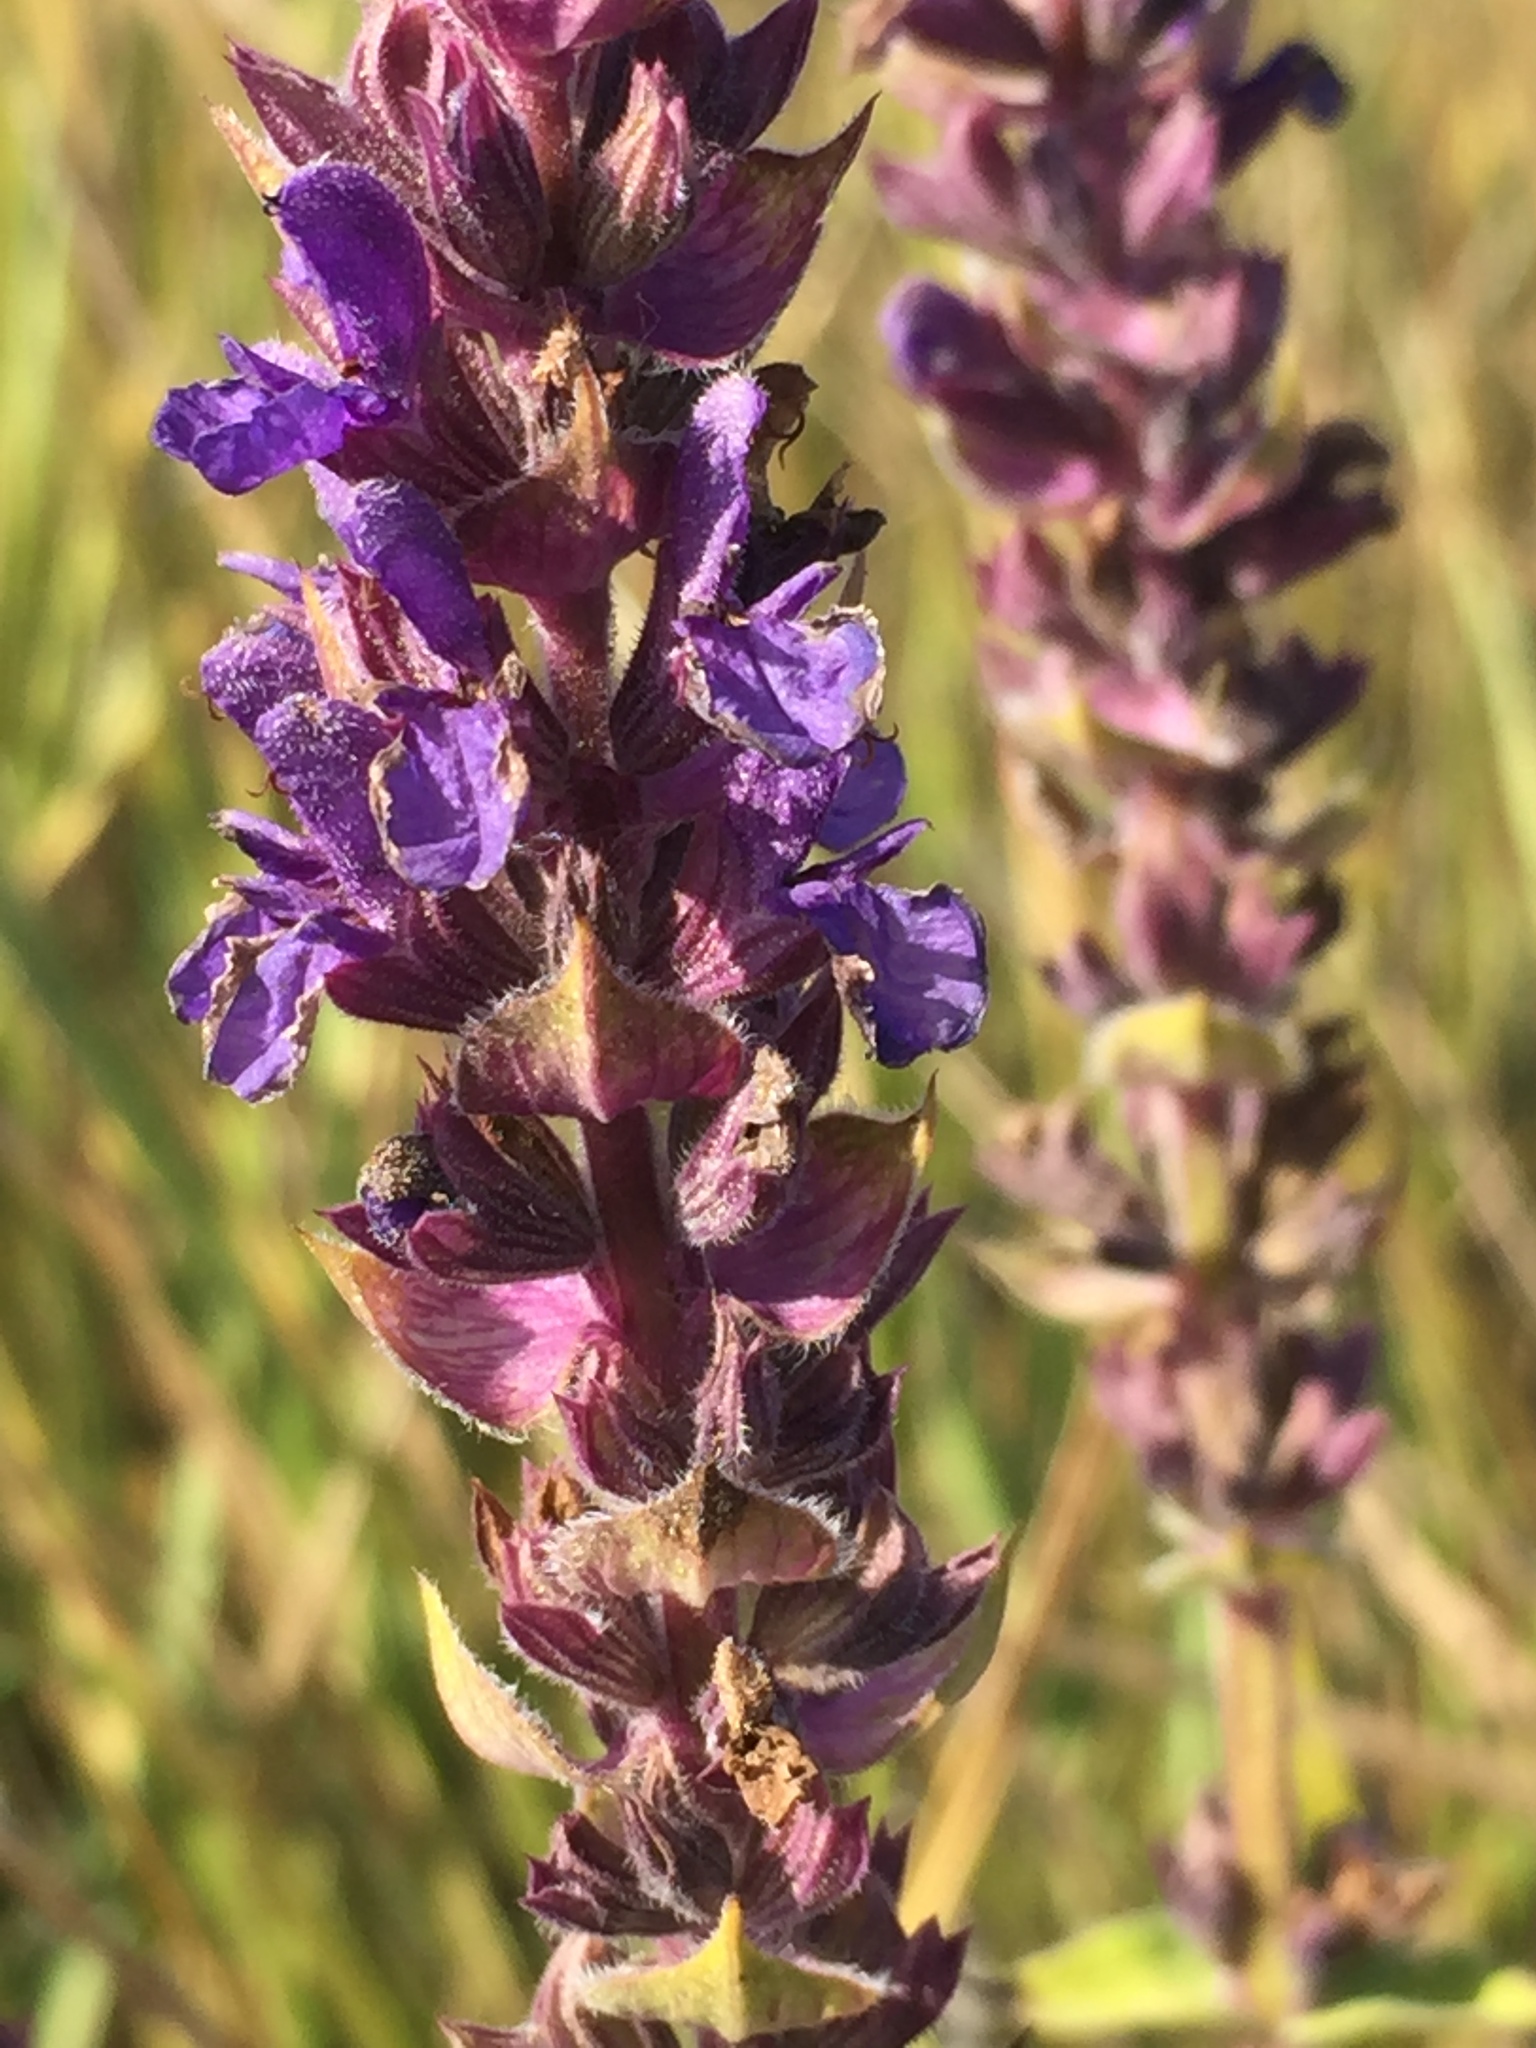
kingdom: Plantae
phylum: Tracheophyta
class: Magnoliopsida
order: Lamiales
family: Lamiaceae
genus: Salvia
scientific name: Salvia nemorosa
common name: Balkan clary
